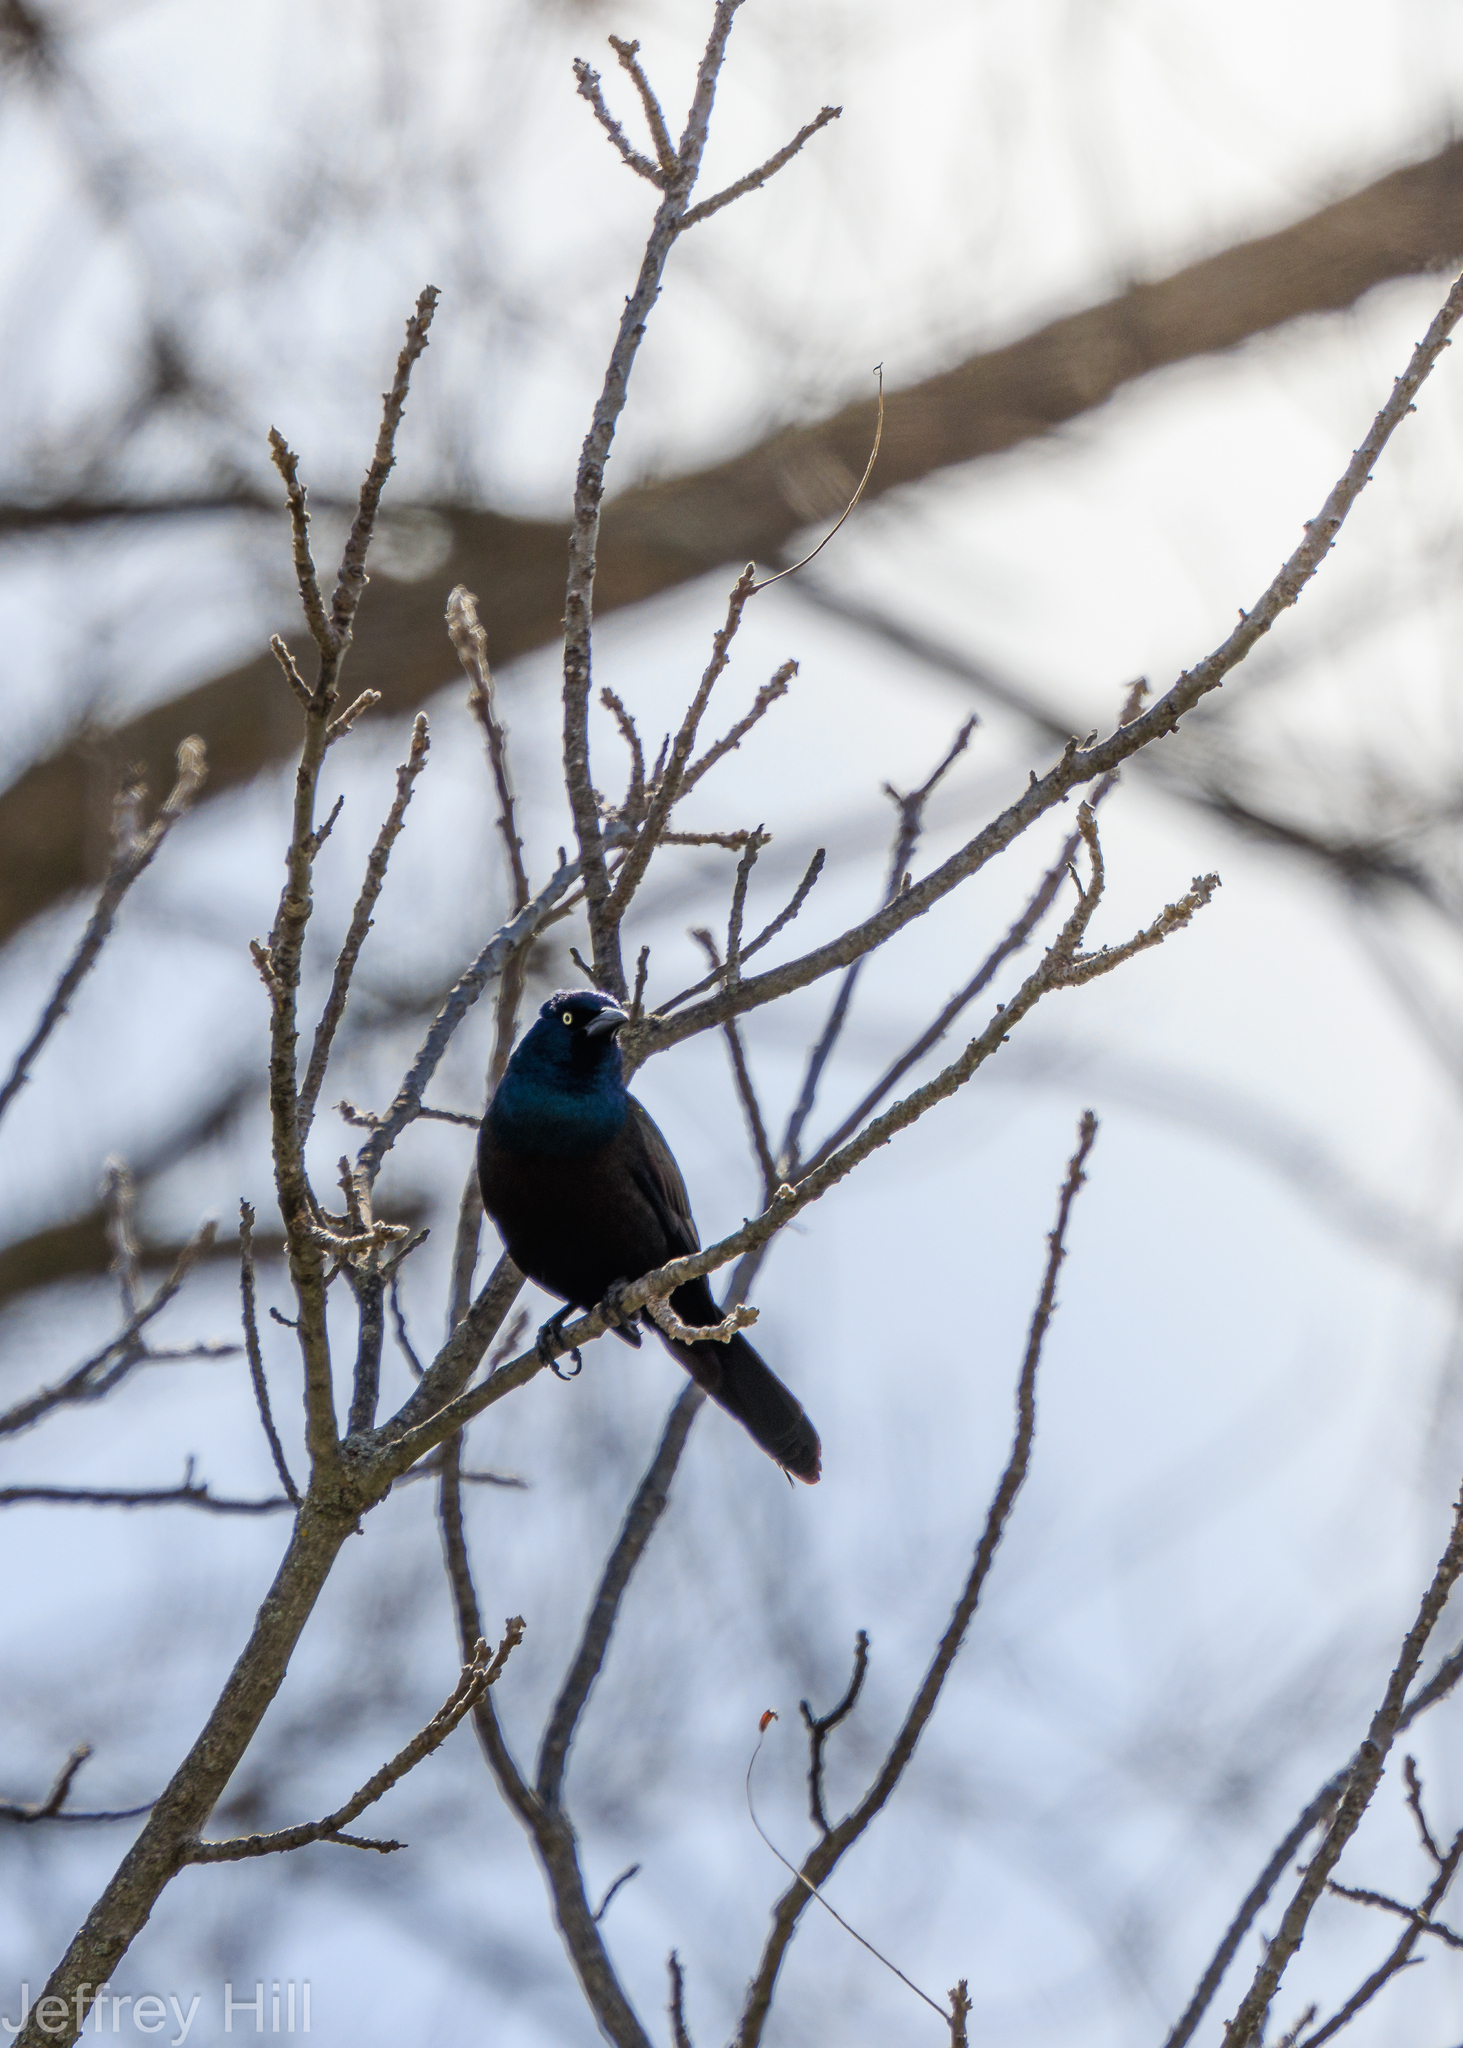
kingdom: Animalia
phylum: Chordata
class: Aves
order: Passeriformes
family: Icteridae
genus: Quiscalus
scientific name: Quiscalus quiscula
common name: Common grackle
